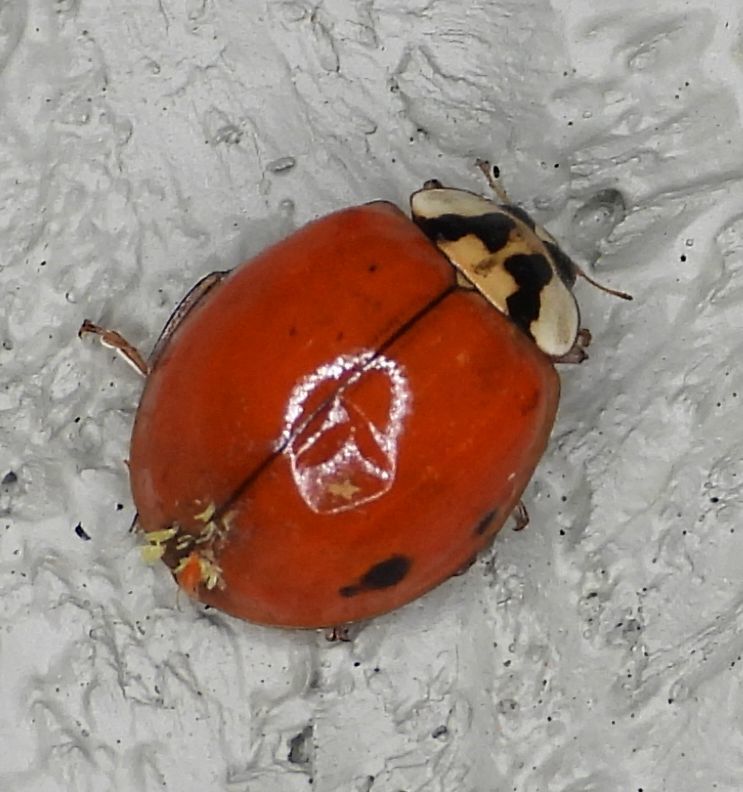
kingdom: Animalia
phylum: Arthropoda
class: Insecta
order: Coleoptera
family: Coccinellidae
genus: Harmonia
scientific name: Harmonia axyridis
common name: Harlequin ladybird
